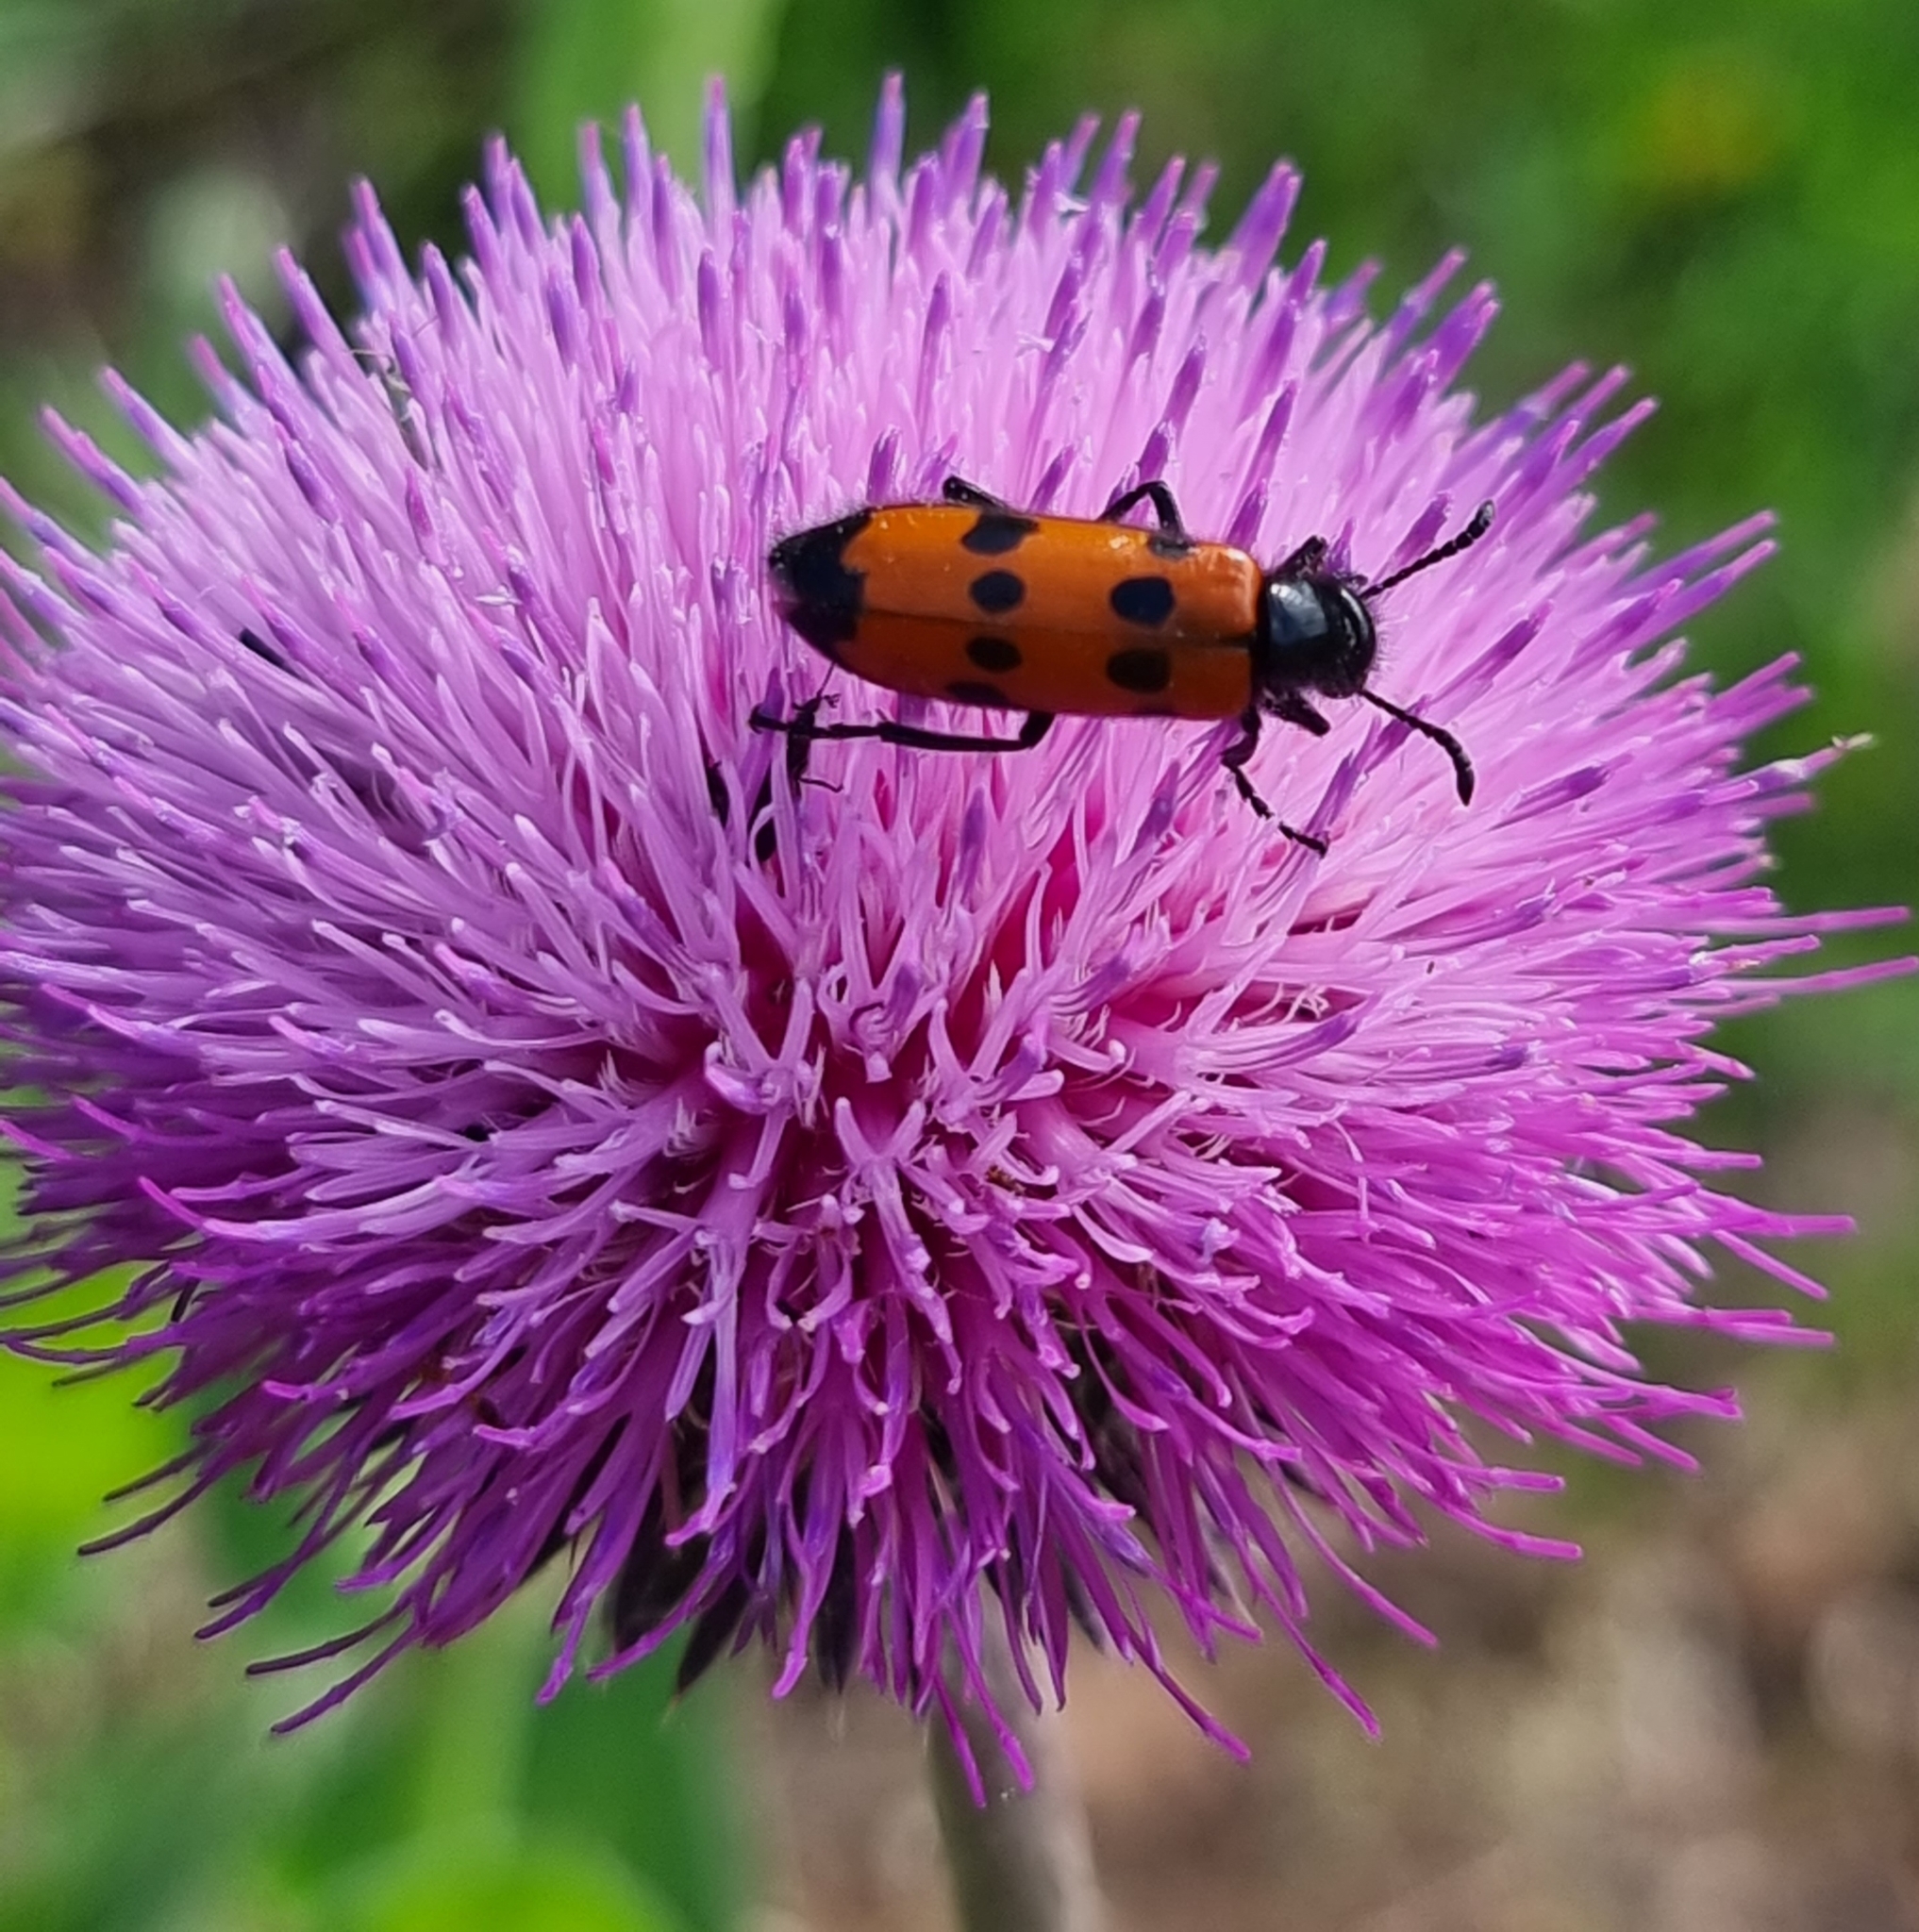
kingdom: Animalia
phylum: Arthropoda
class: Insecta
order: Coleoptera
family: Meloidae
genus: Mylabris
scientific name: Mylabris quadripunctata
